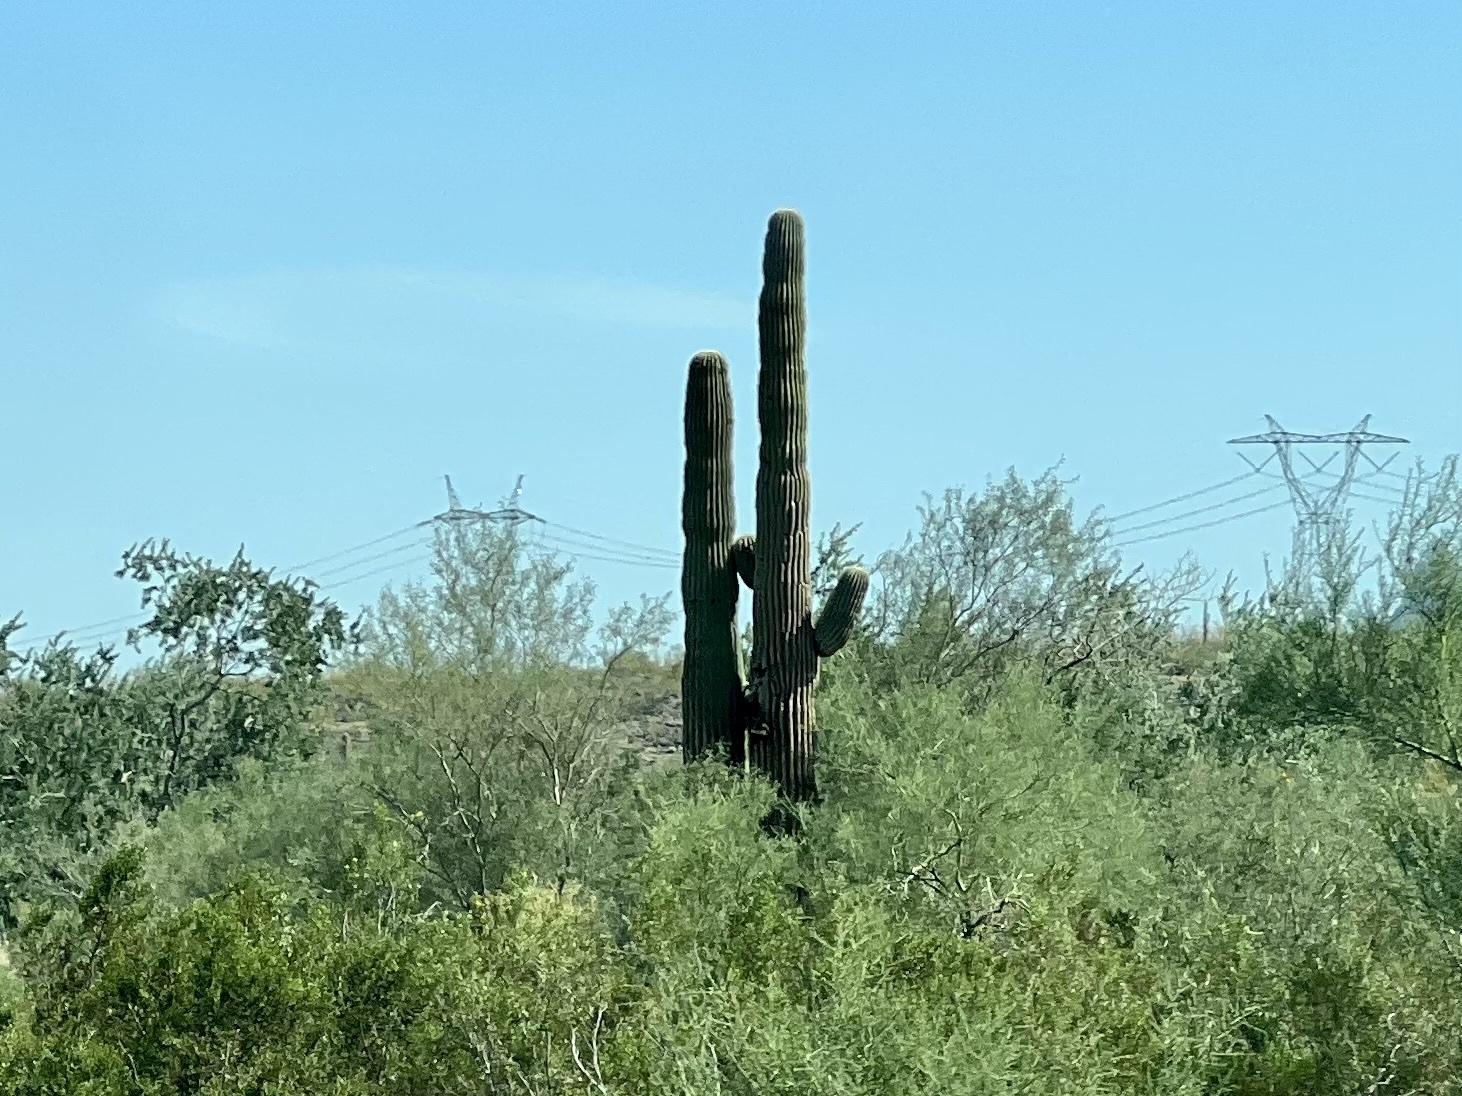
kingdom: Plantae
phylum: Tracheophyta
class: Magnoliopsida
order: Caryophyllales
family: Cactaceae
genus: Carnegiea
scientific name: Carnegiea gigantea
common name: Saguaro
